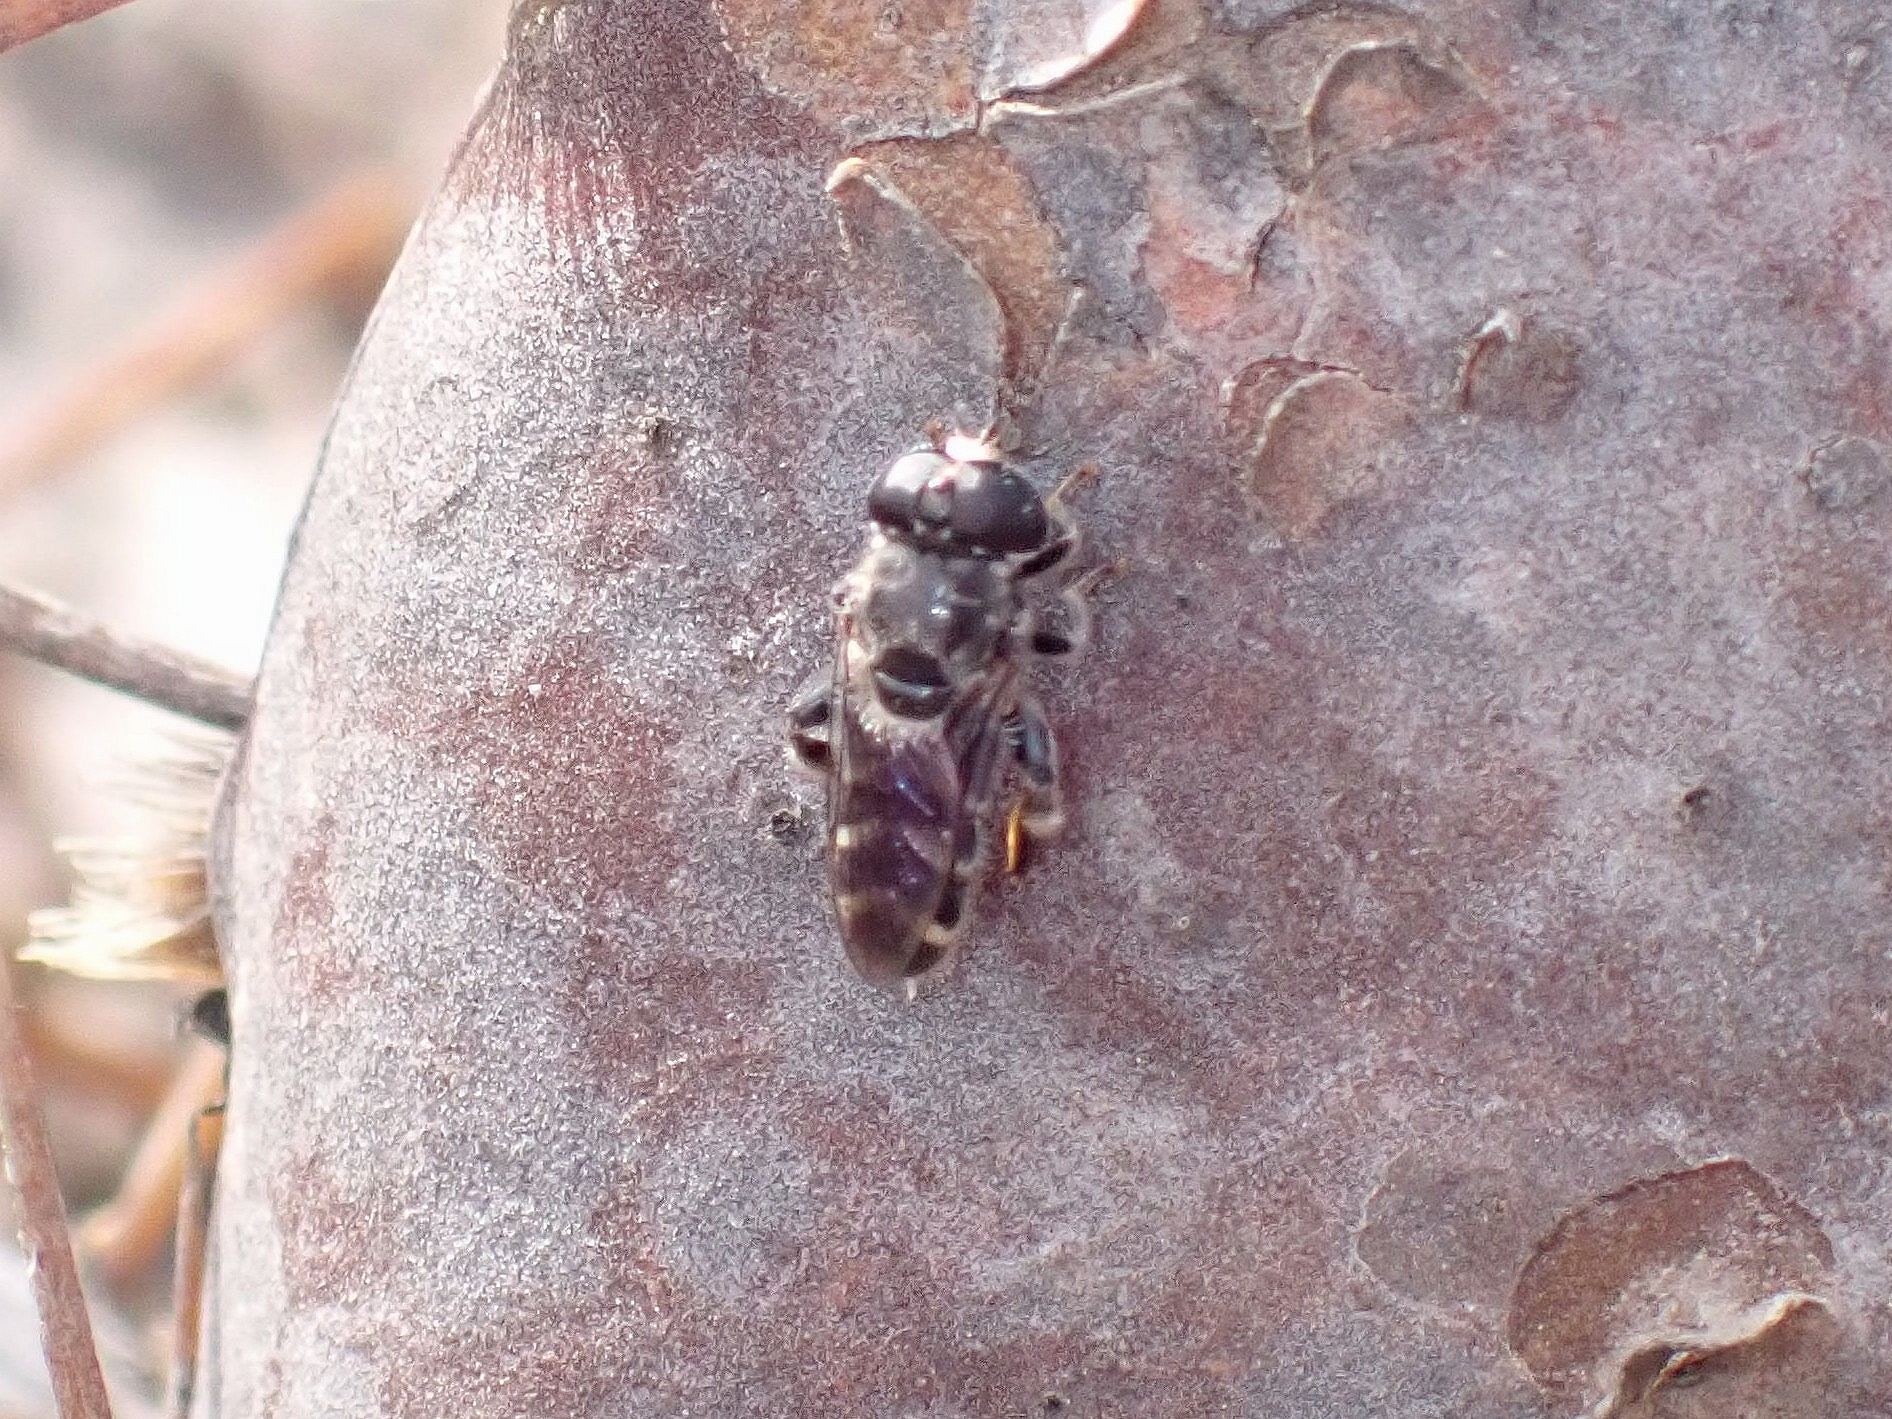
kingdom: Animalia
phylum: Arthropoda
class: Insecta
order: Diptera
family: Syrphidae
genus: Eumerus
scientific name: Eumerus obliquus
